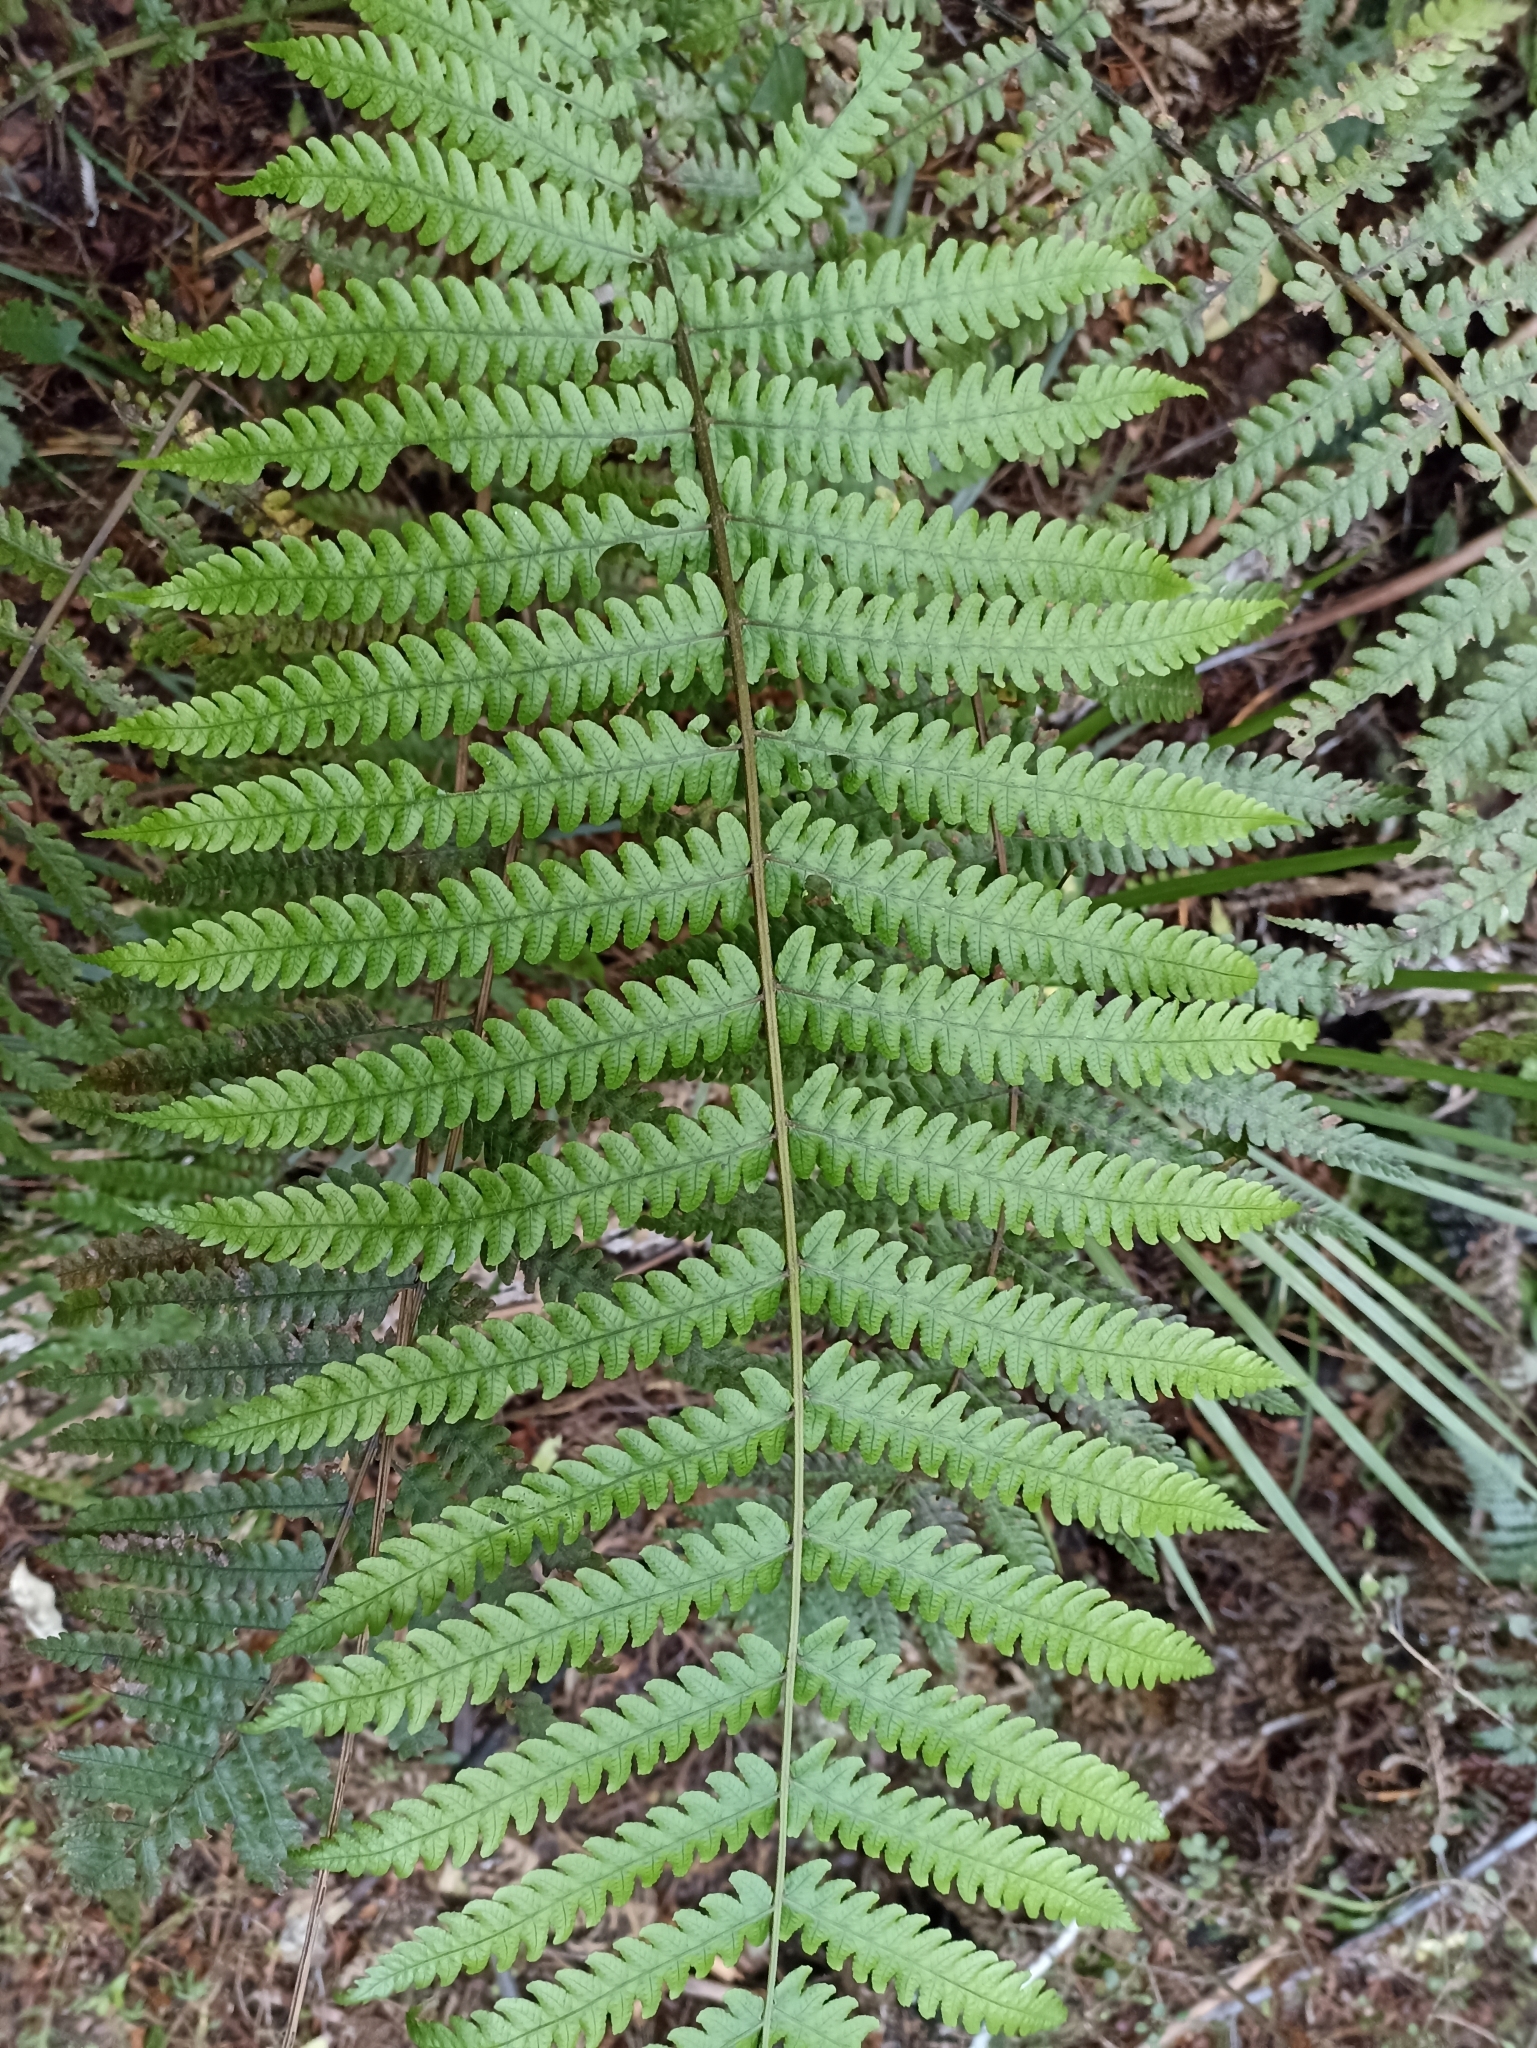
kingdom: Plantae
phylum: Tracheophyta
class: Polypodiopsida
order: Polypodiales
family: Thelypteridaceae
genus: Pakau
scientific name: Pakau pennigera
